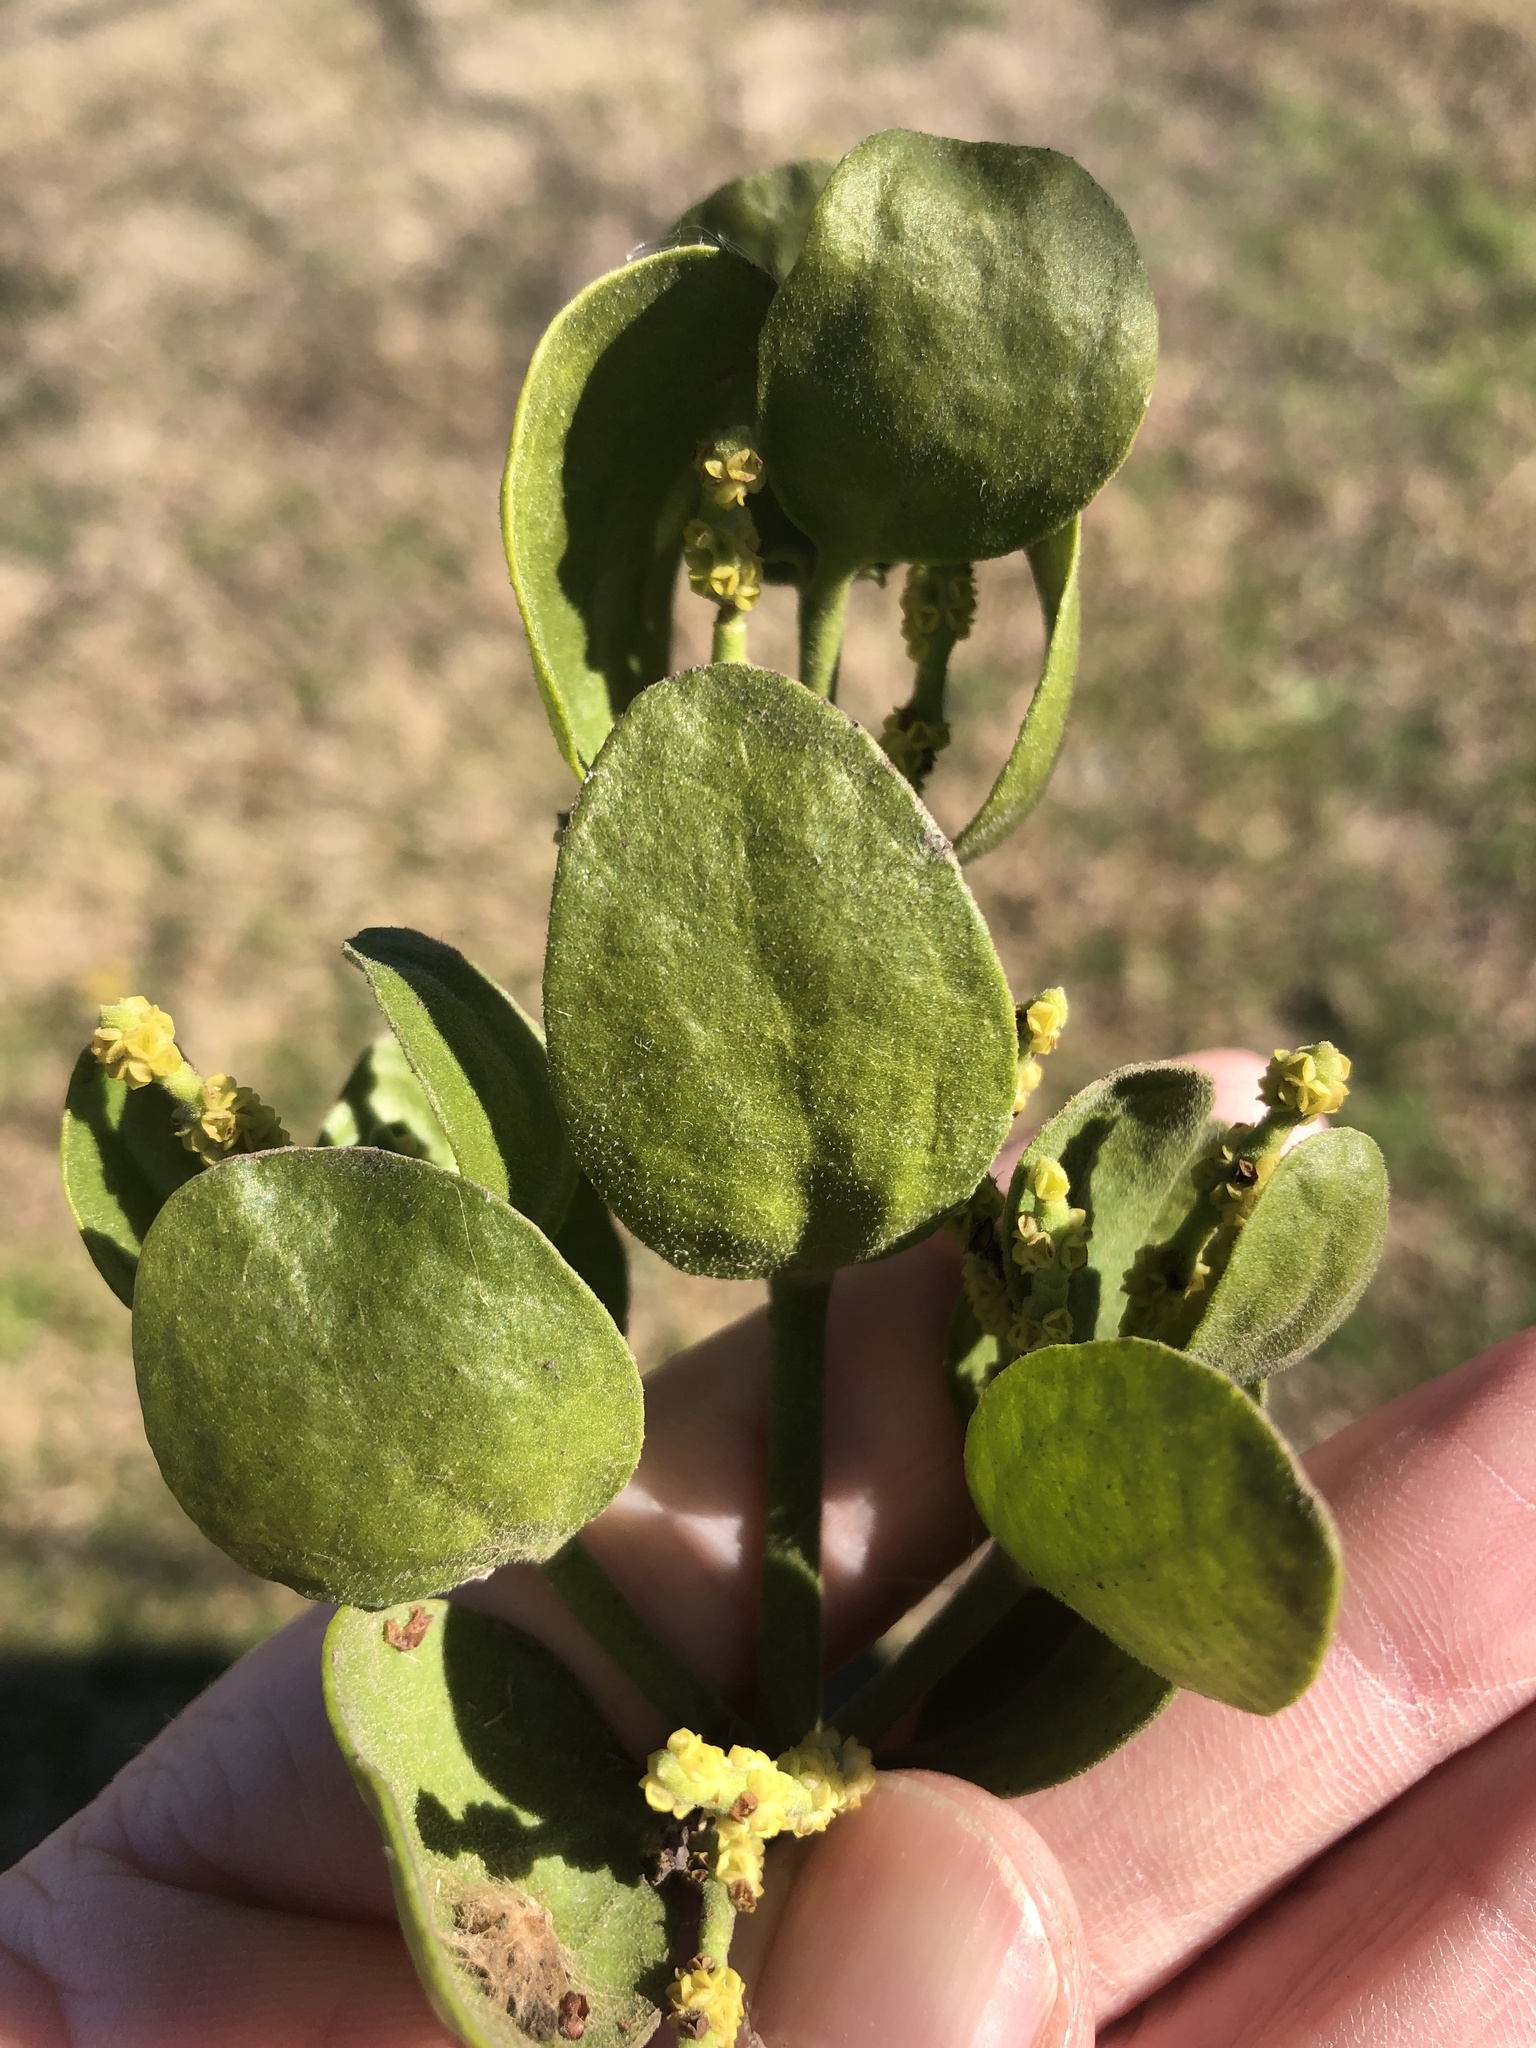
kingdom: Plantae
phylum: Tracheophyta
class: Magnoliopsida
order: Santalales
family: Viscaceae
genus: Phoradendron
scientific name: Phoradendron leucarpum
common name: Pacific mistletoe
